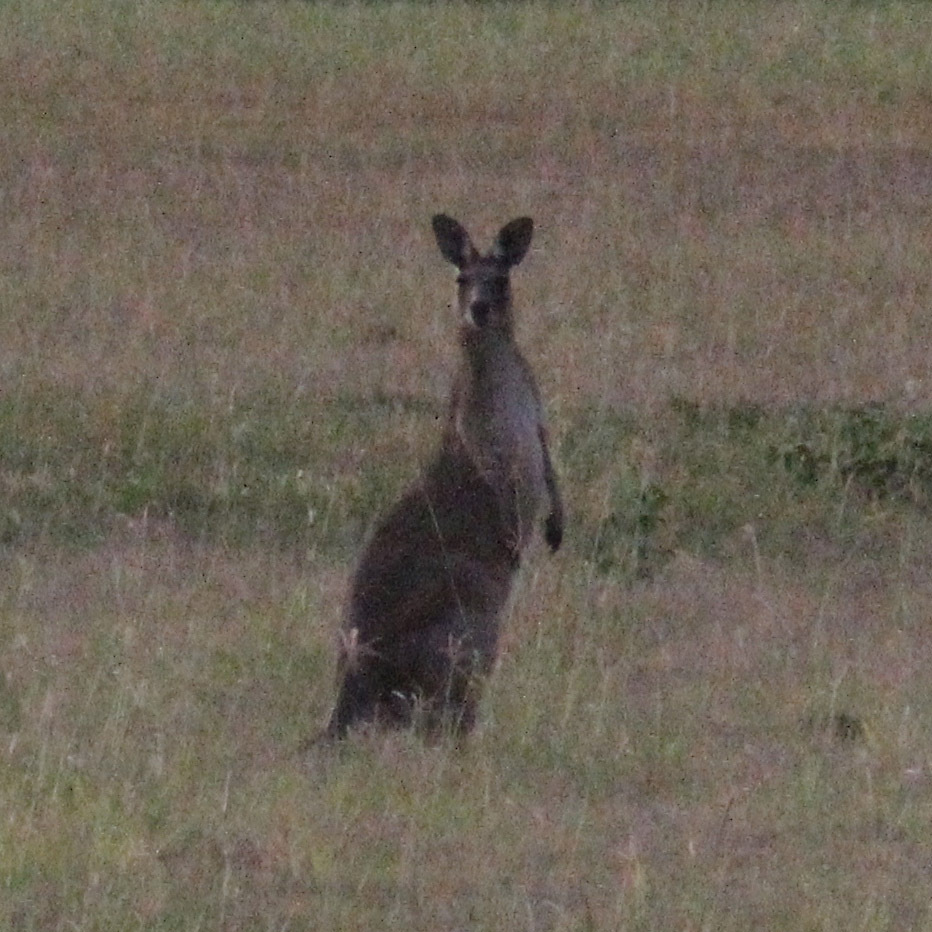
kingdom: Animalia
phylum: Chordata
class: Mammalia
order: Diprotodontia
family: Macropodidae
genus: Macropus
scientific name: Macropus giganteus
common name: Eastern grey kangaroo
